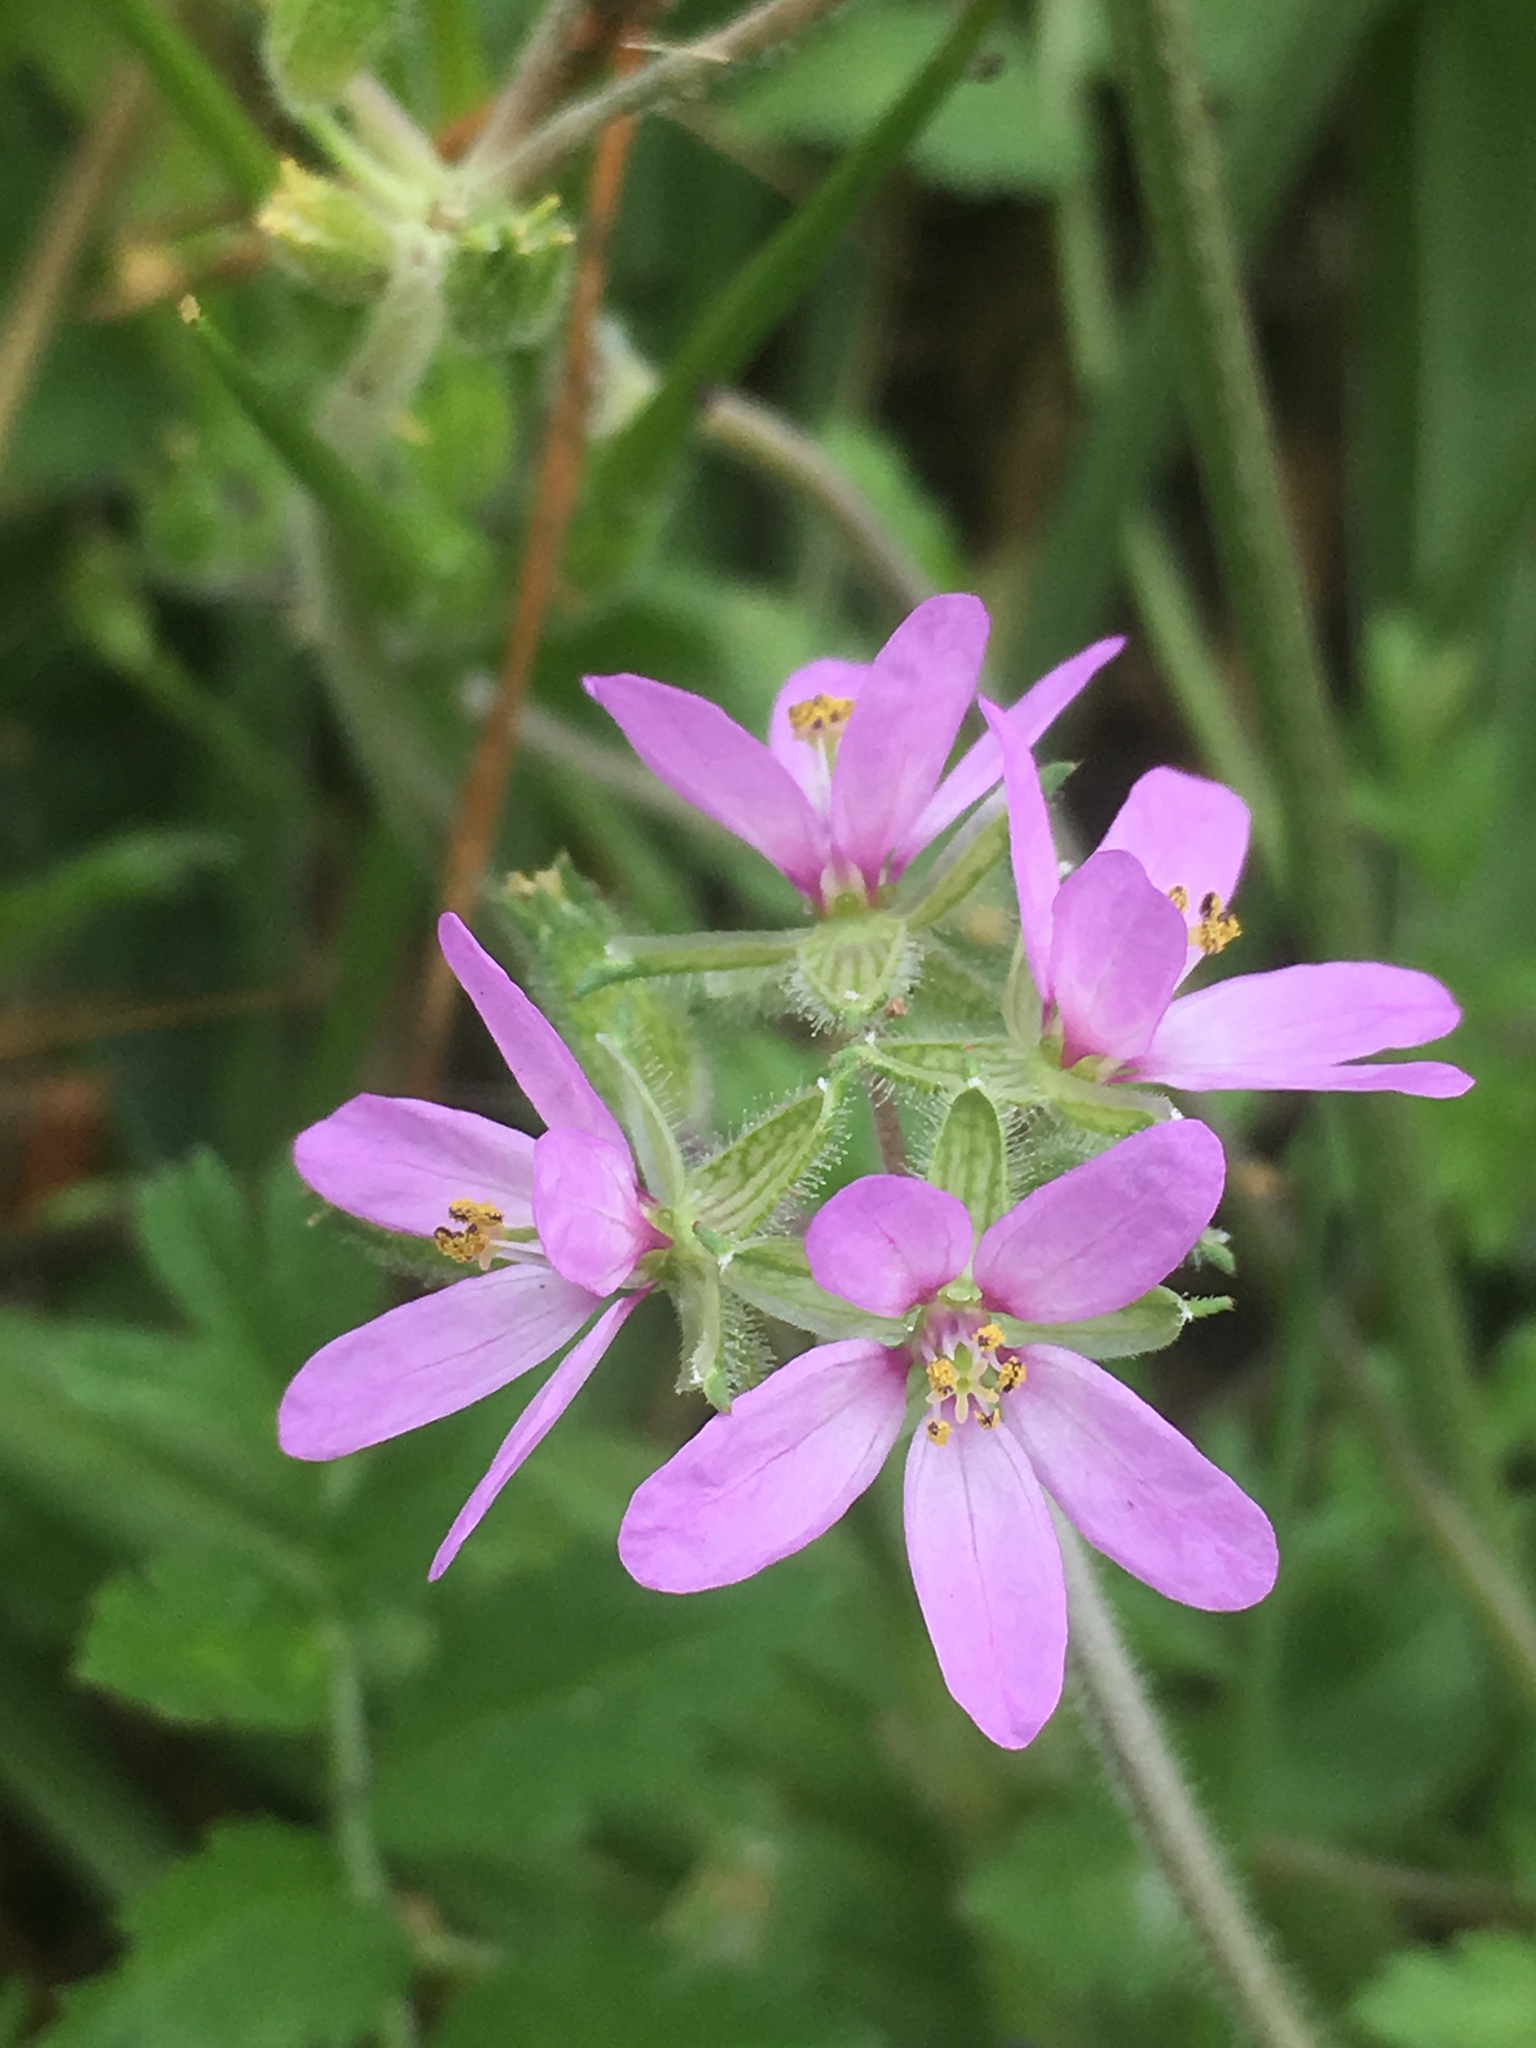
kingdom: Plantae
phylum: Tracheophyta
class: Magnoliopsida
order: Geraniales
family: Geraniaceae
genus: Erodium
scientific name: Erodium moschatum
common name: Musk stork's-bill
